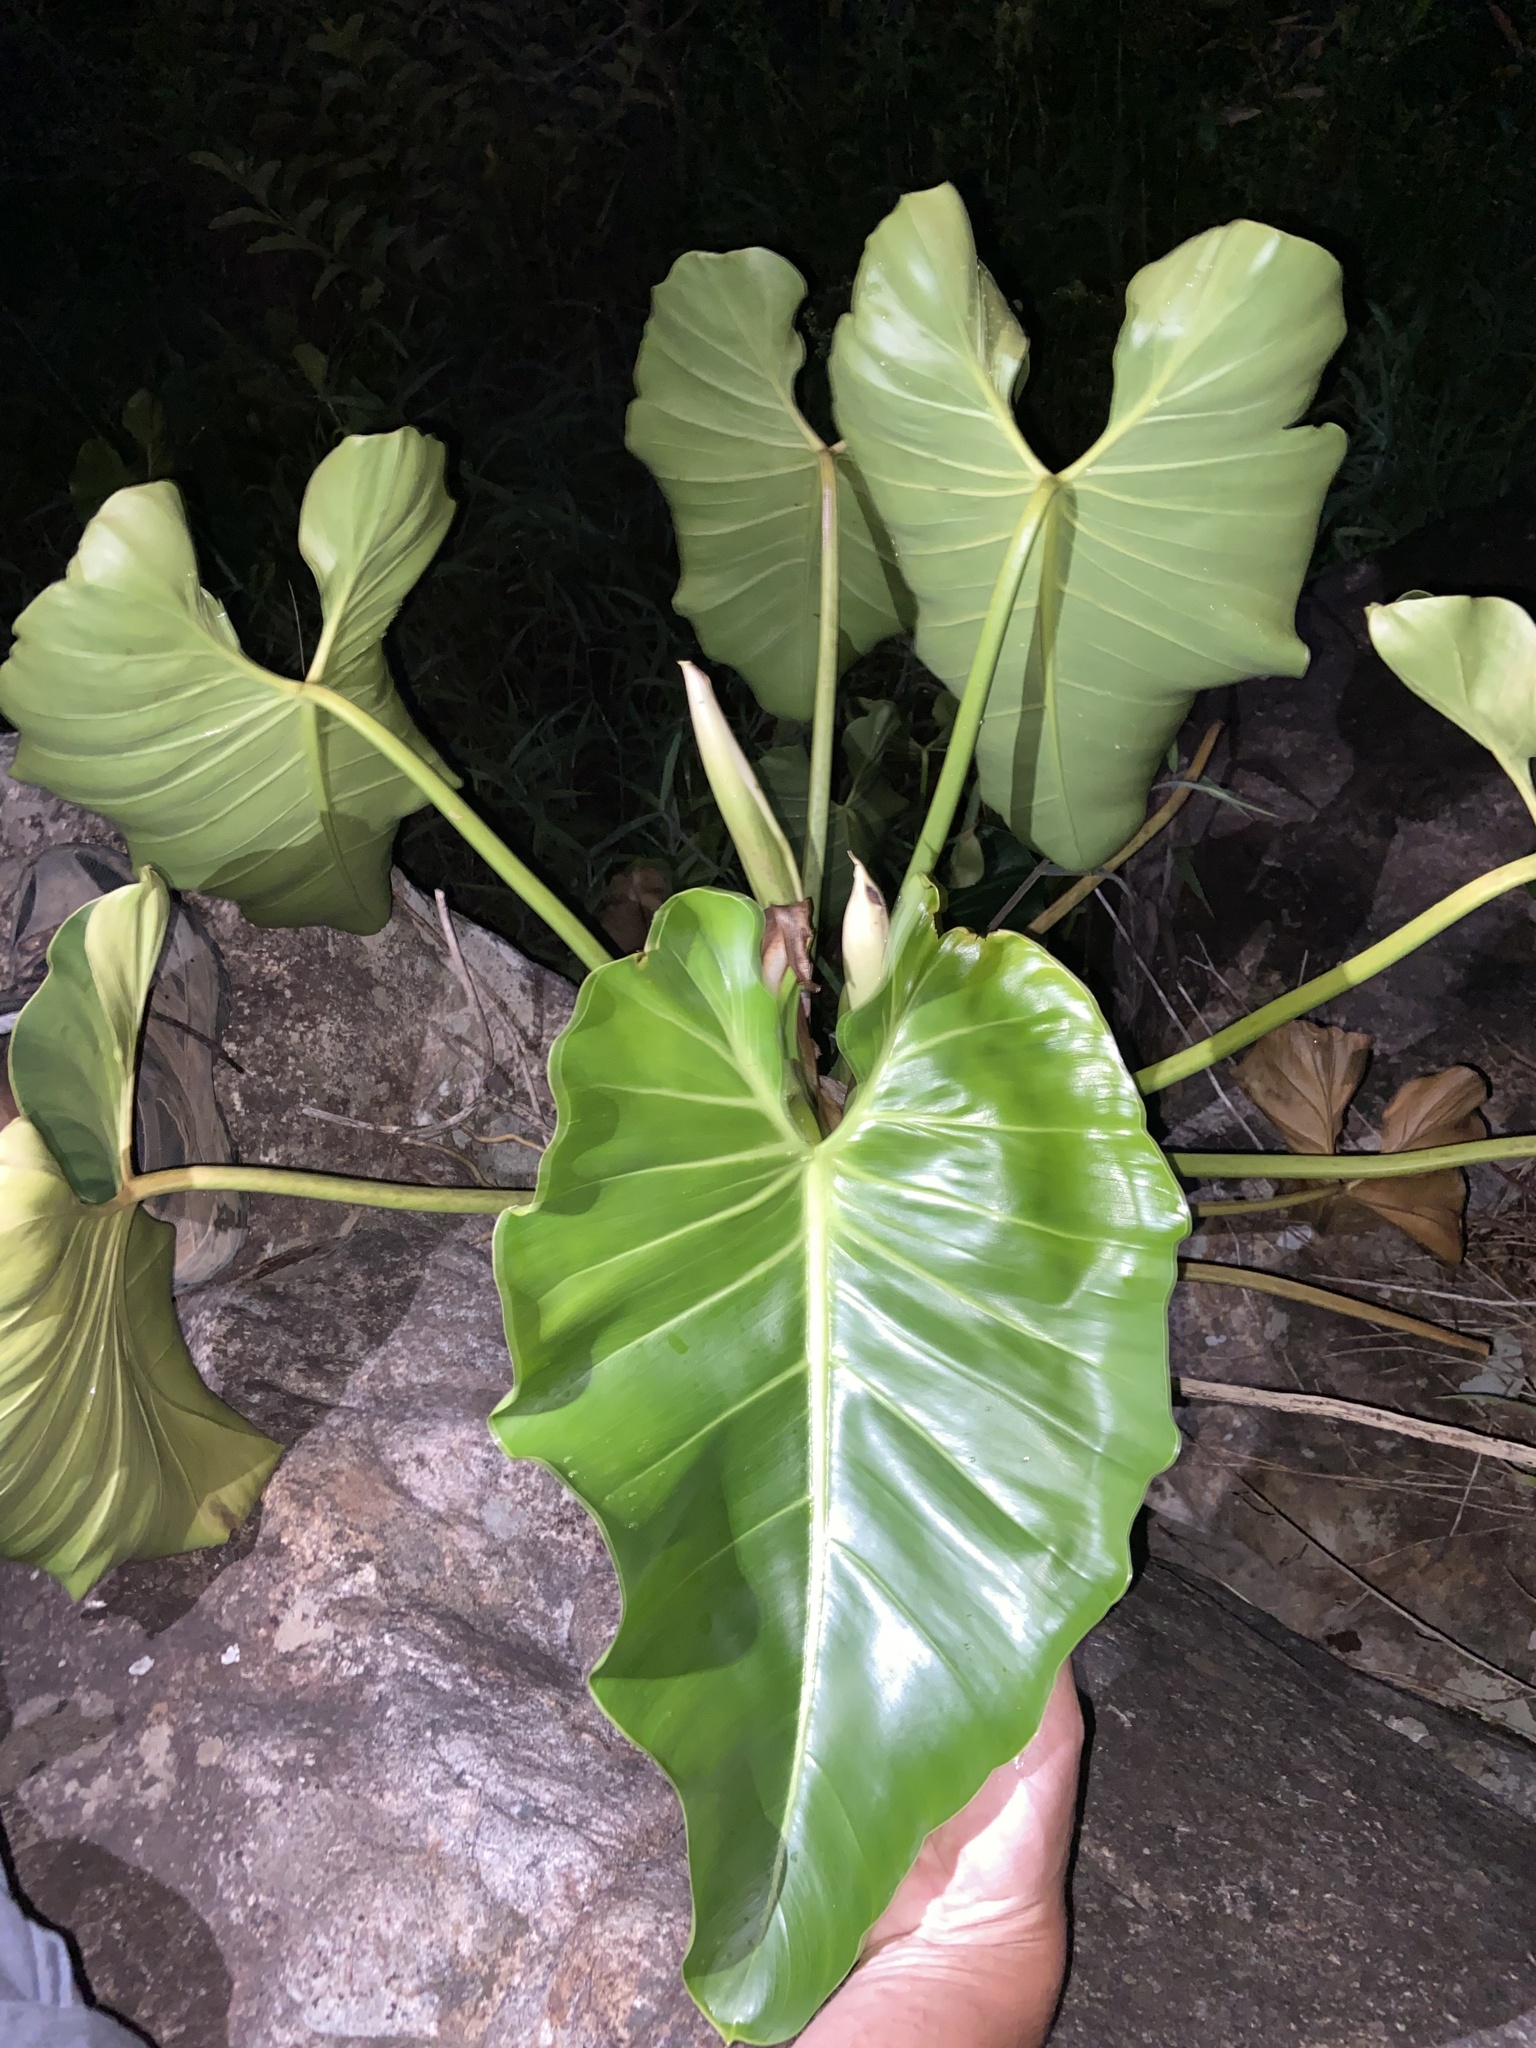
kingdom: Plantae
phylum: Tracheophyta
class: Liliopsida
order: Alismatales
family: Araceae
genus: Philodendron
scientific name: Philodendron minarum
